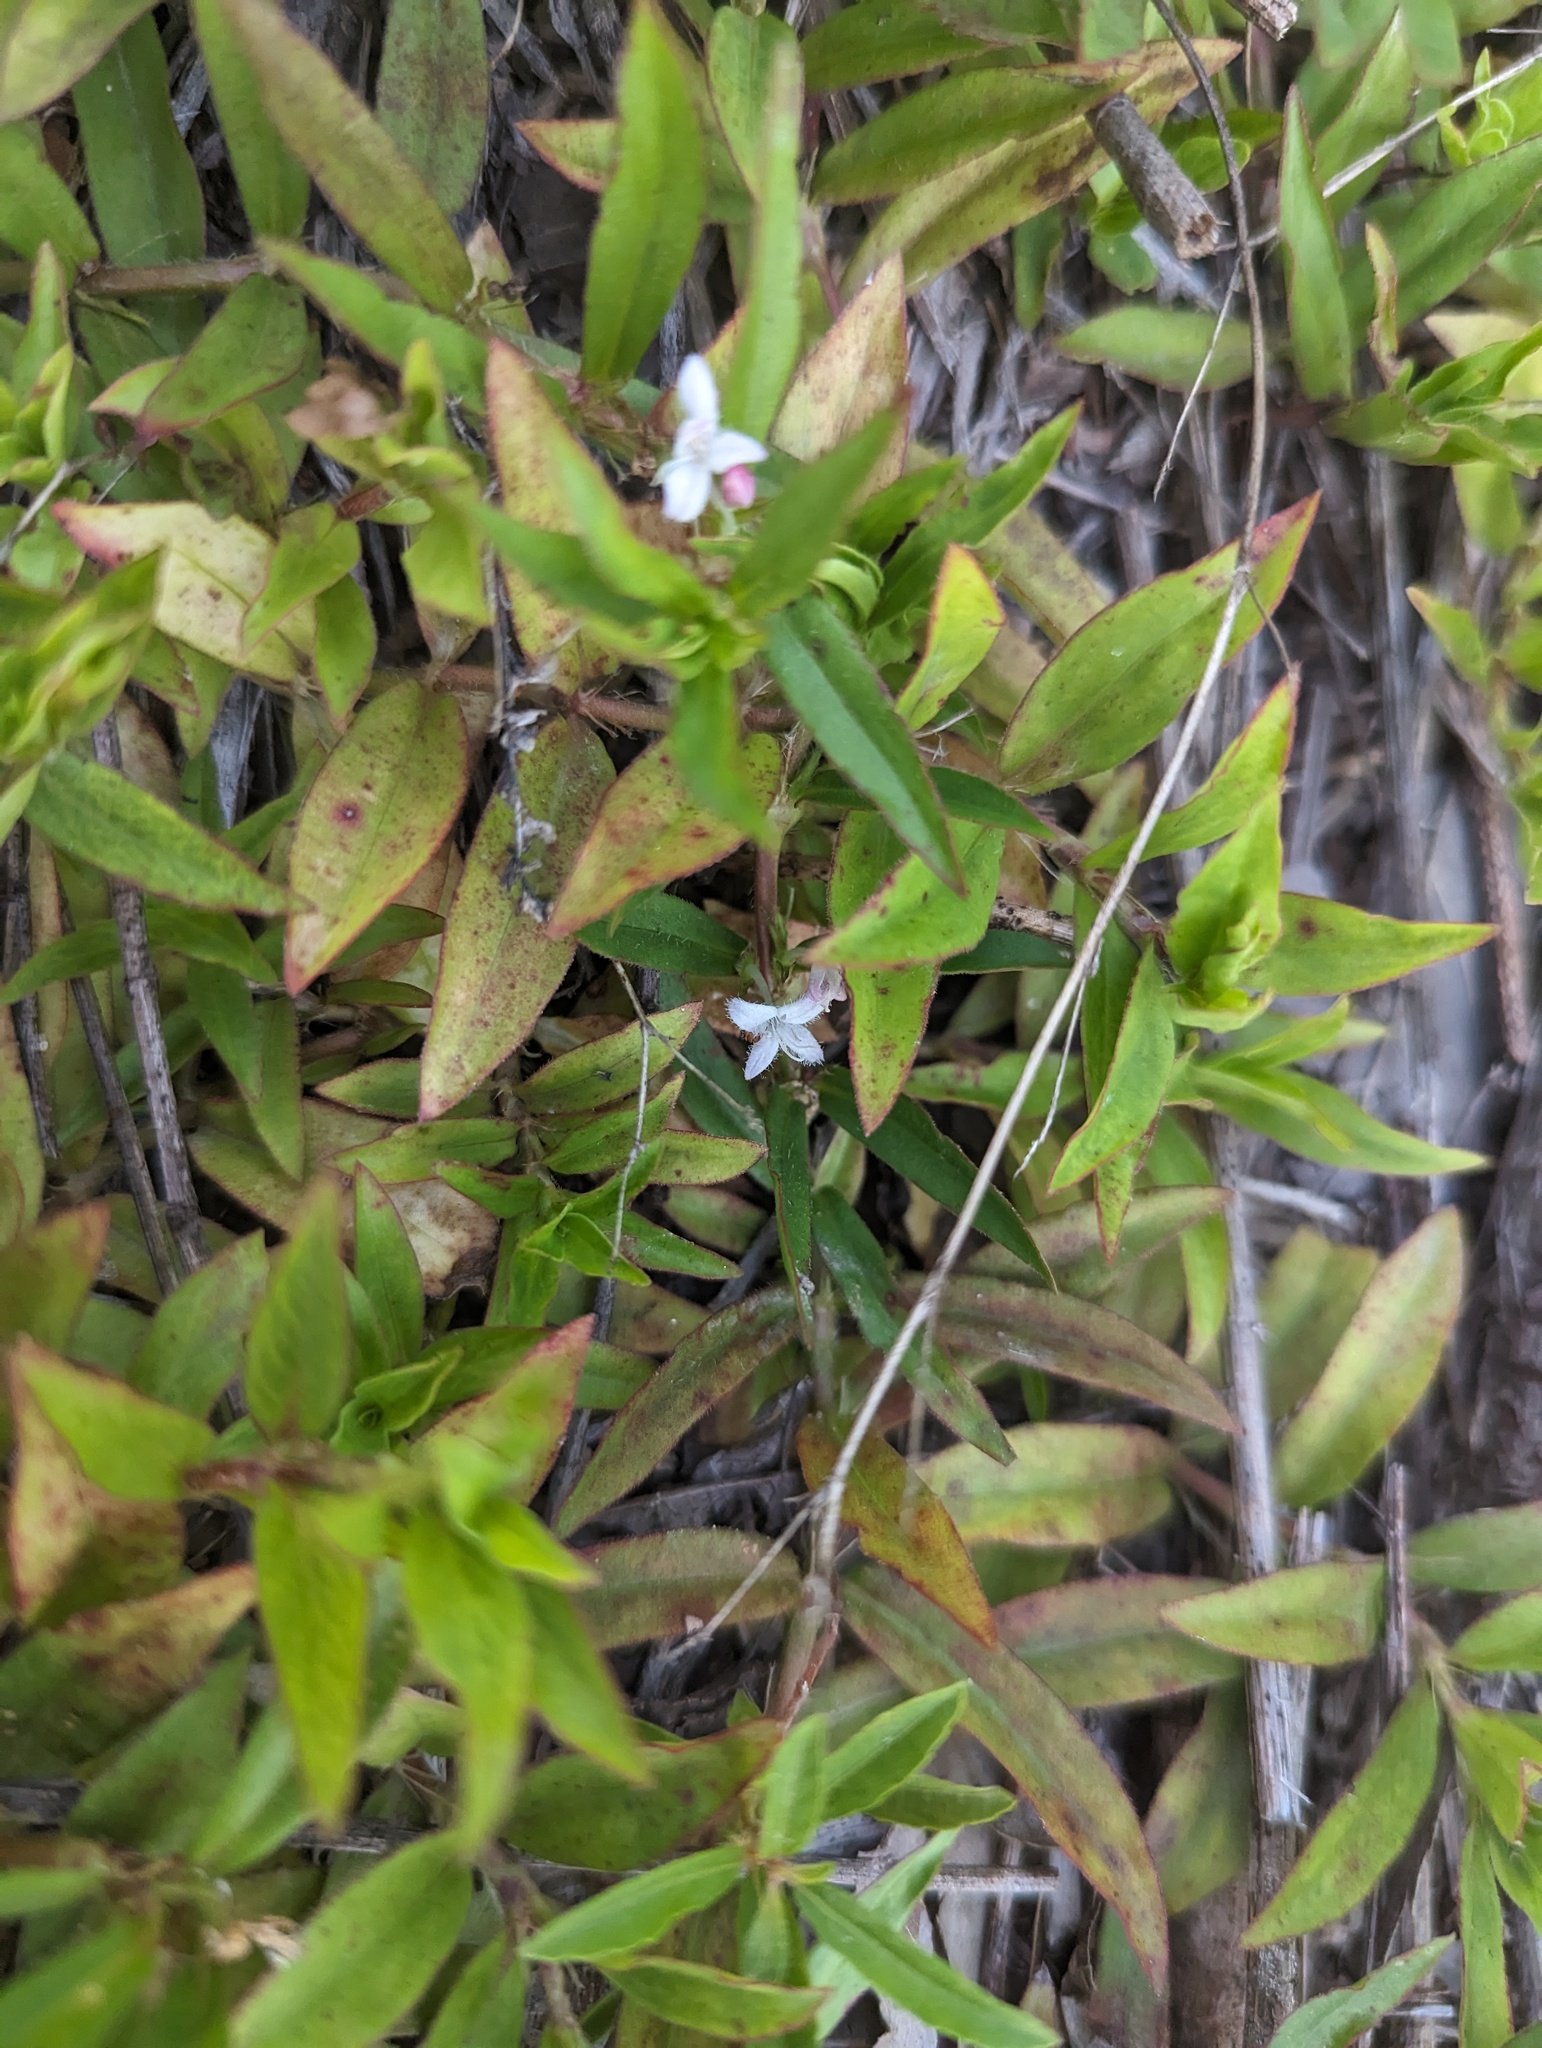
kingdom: Plantae
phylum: Tracheophyta
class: Magnoliopsida
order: Gentianales
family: Rubiaceae
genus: Diodia
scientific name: Diodia virginiana
